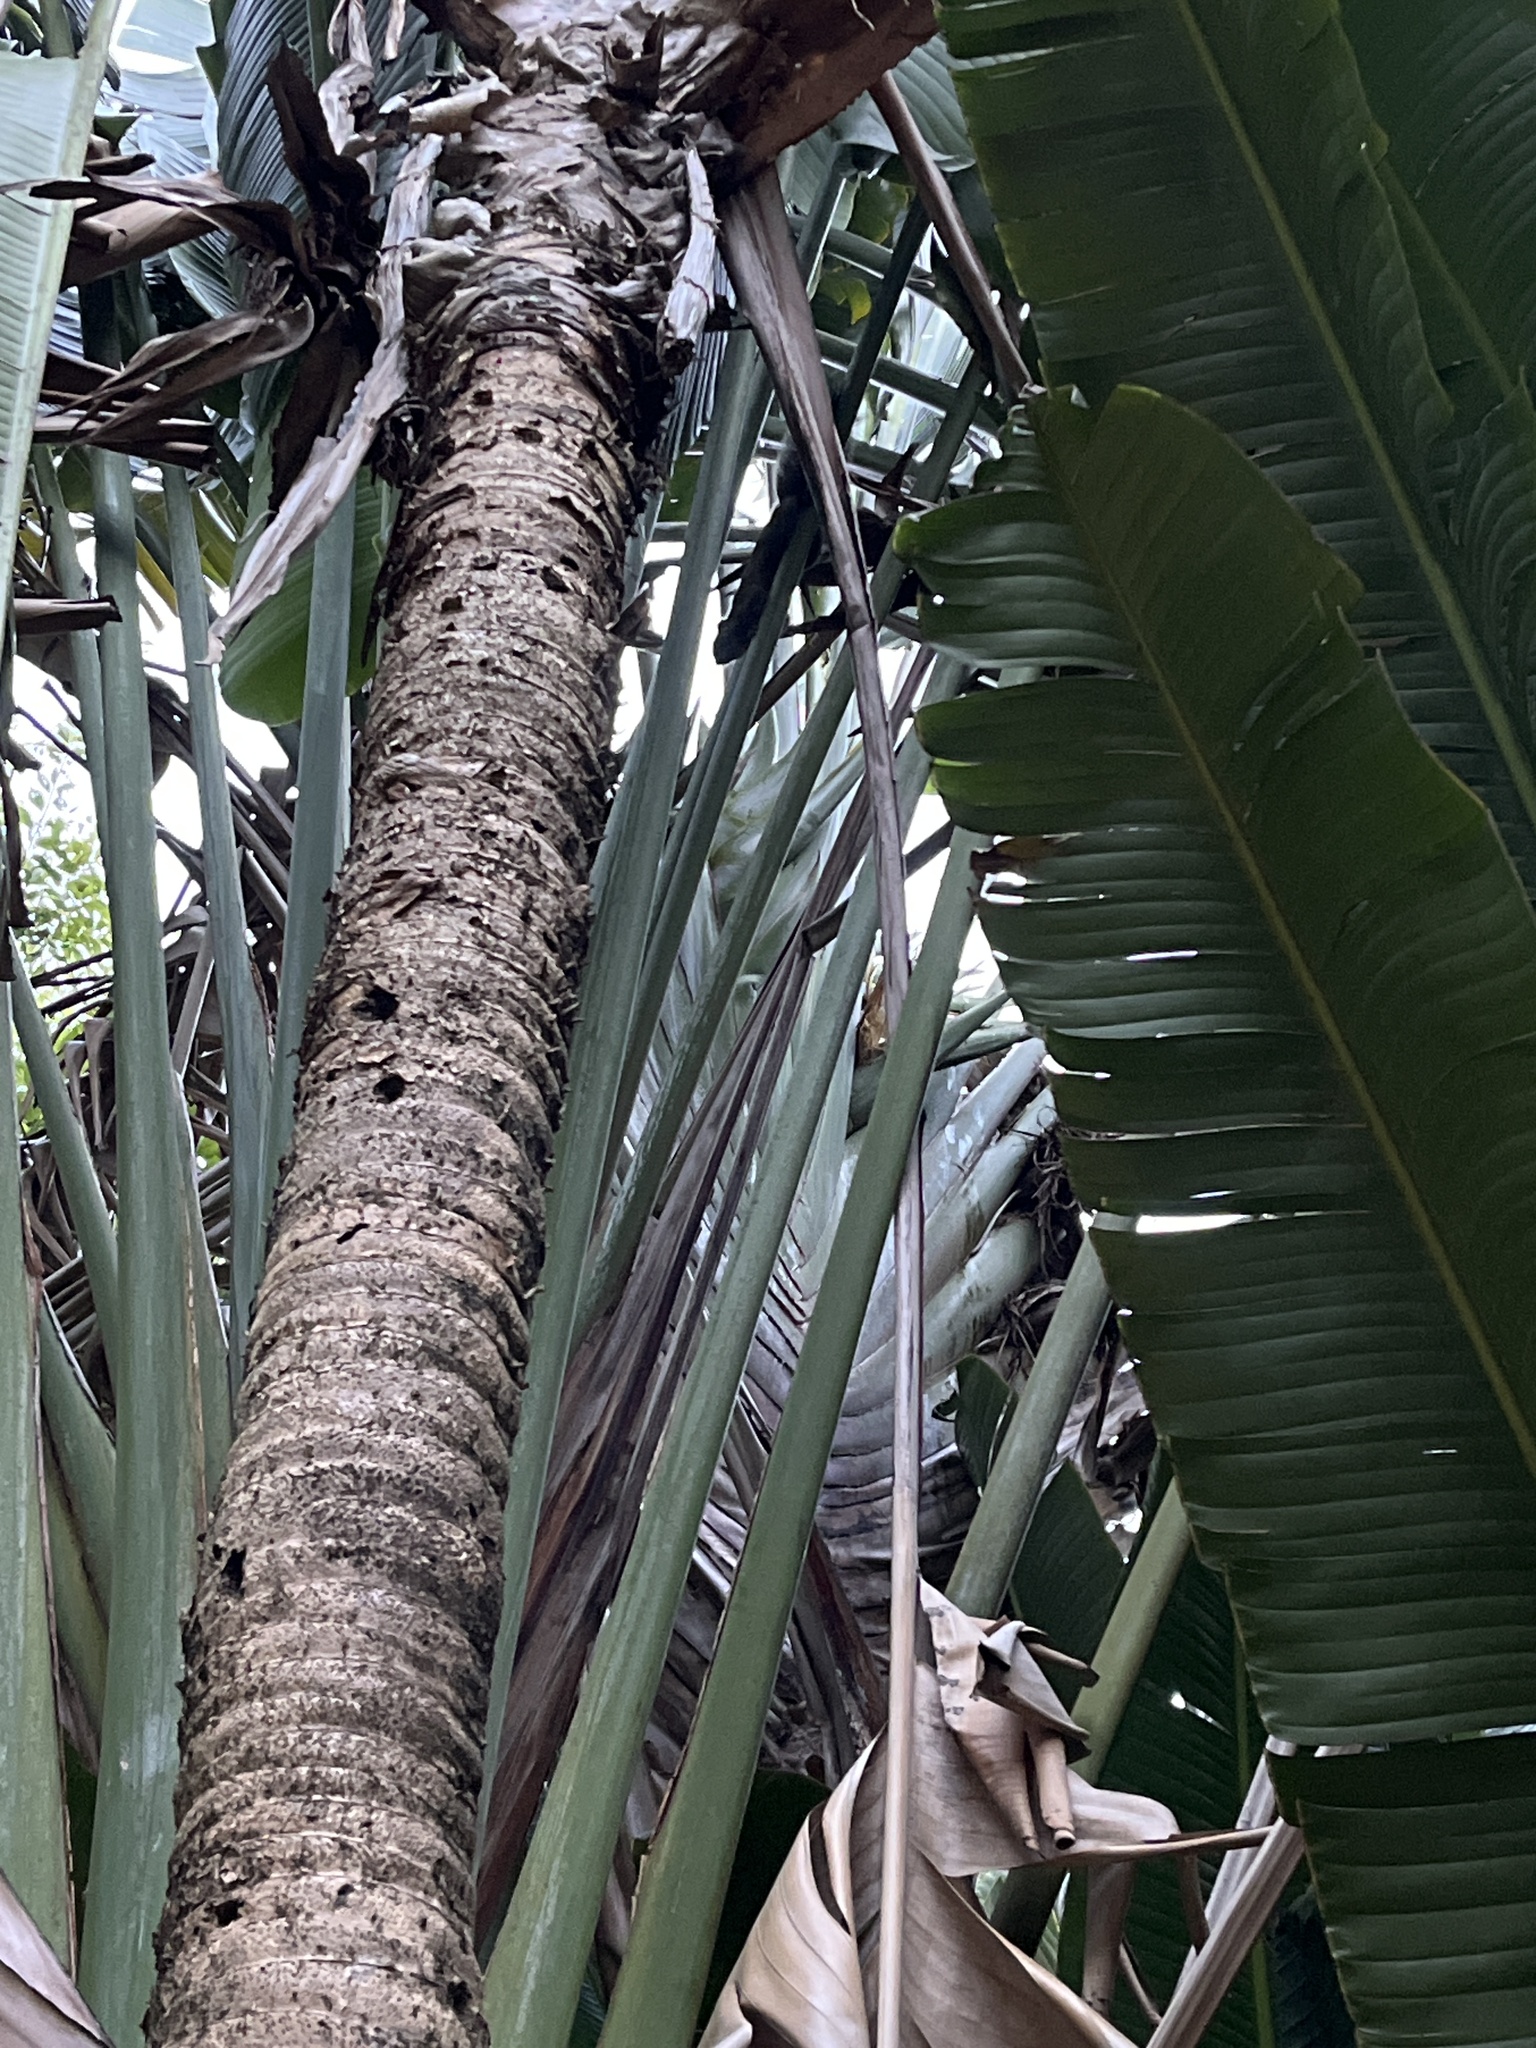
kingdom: Animalia
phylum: Chordata
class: Mammalia
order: Rodentia
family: Sciuridae
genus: Callosciurus
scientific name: Callosciurus erythraeus
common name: Pallas's squirrel
